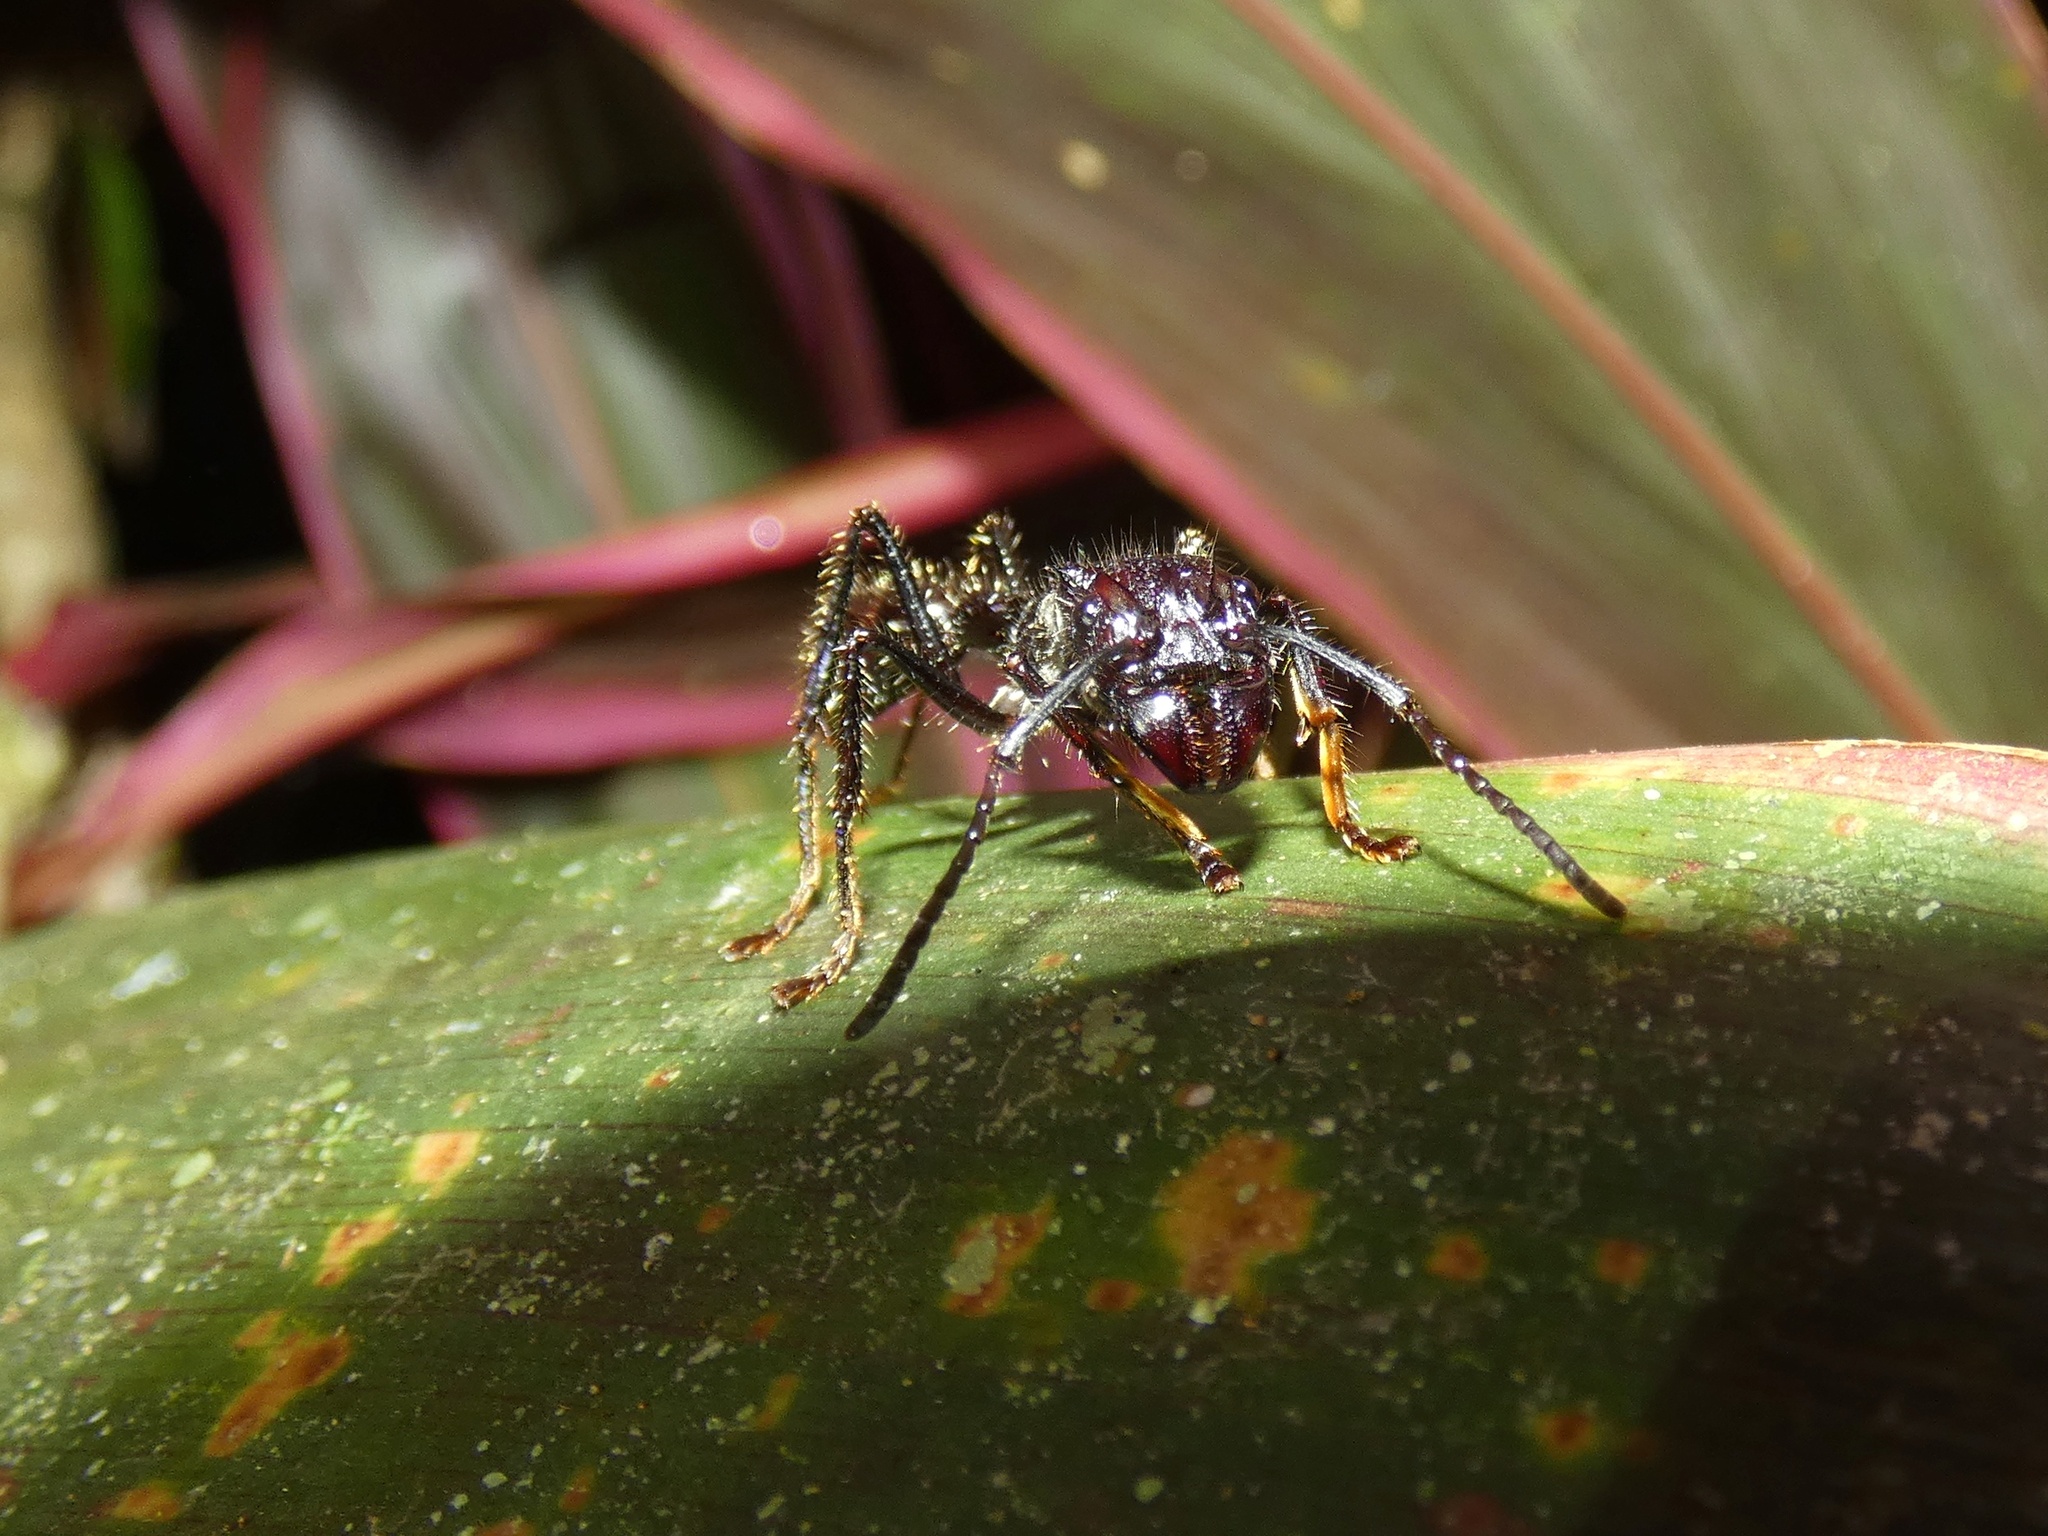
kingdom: Animalia
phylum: Arthropoda
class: Insecta
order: Hymenoptera
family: Formicidae
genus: Paraponera
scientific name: Paraponera clavata
